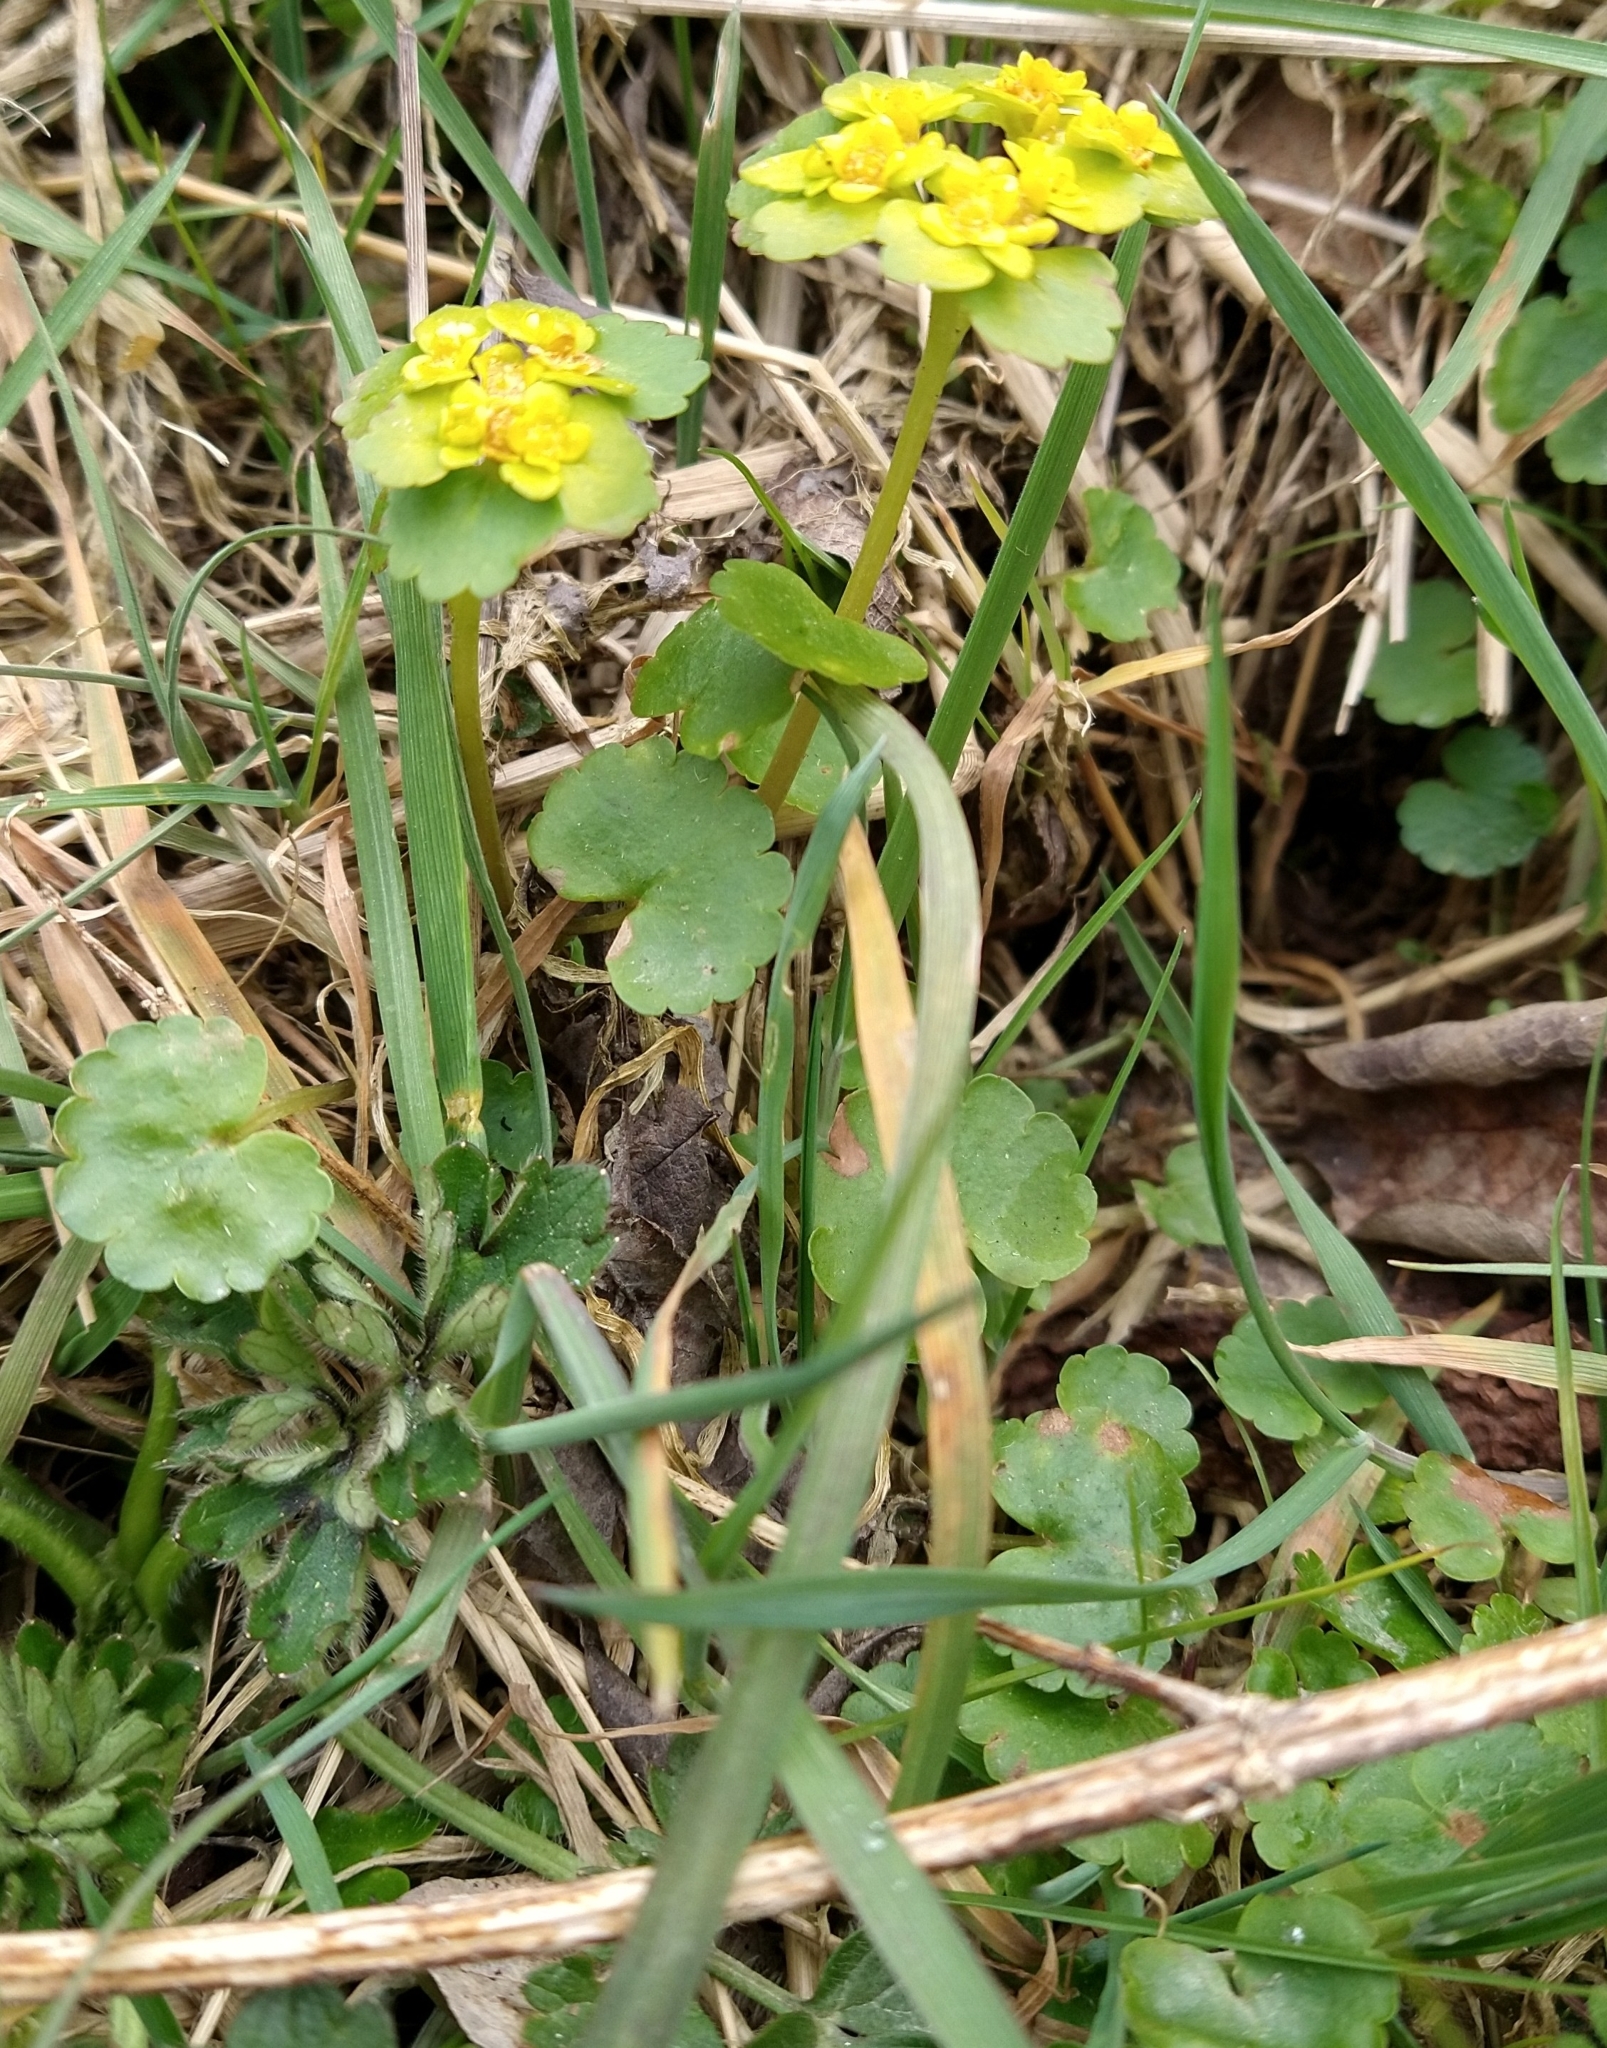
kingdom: Plantae
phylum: Tracheophyta
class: Magnoliopsida
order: Saxifragales
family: Saxifragaceae
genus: Chrysosplenium
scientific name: Chrysosplenium alternifolium
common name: Alternate-leaved golden-saxifrage
